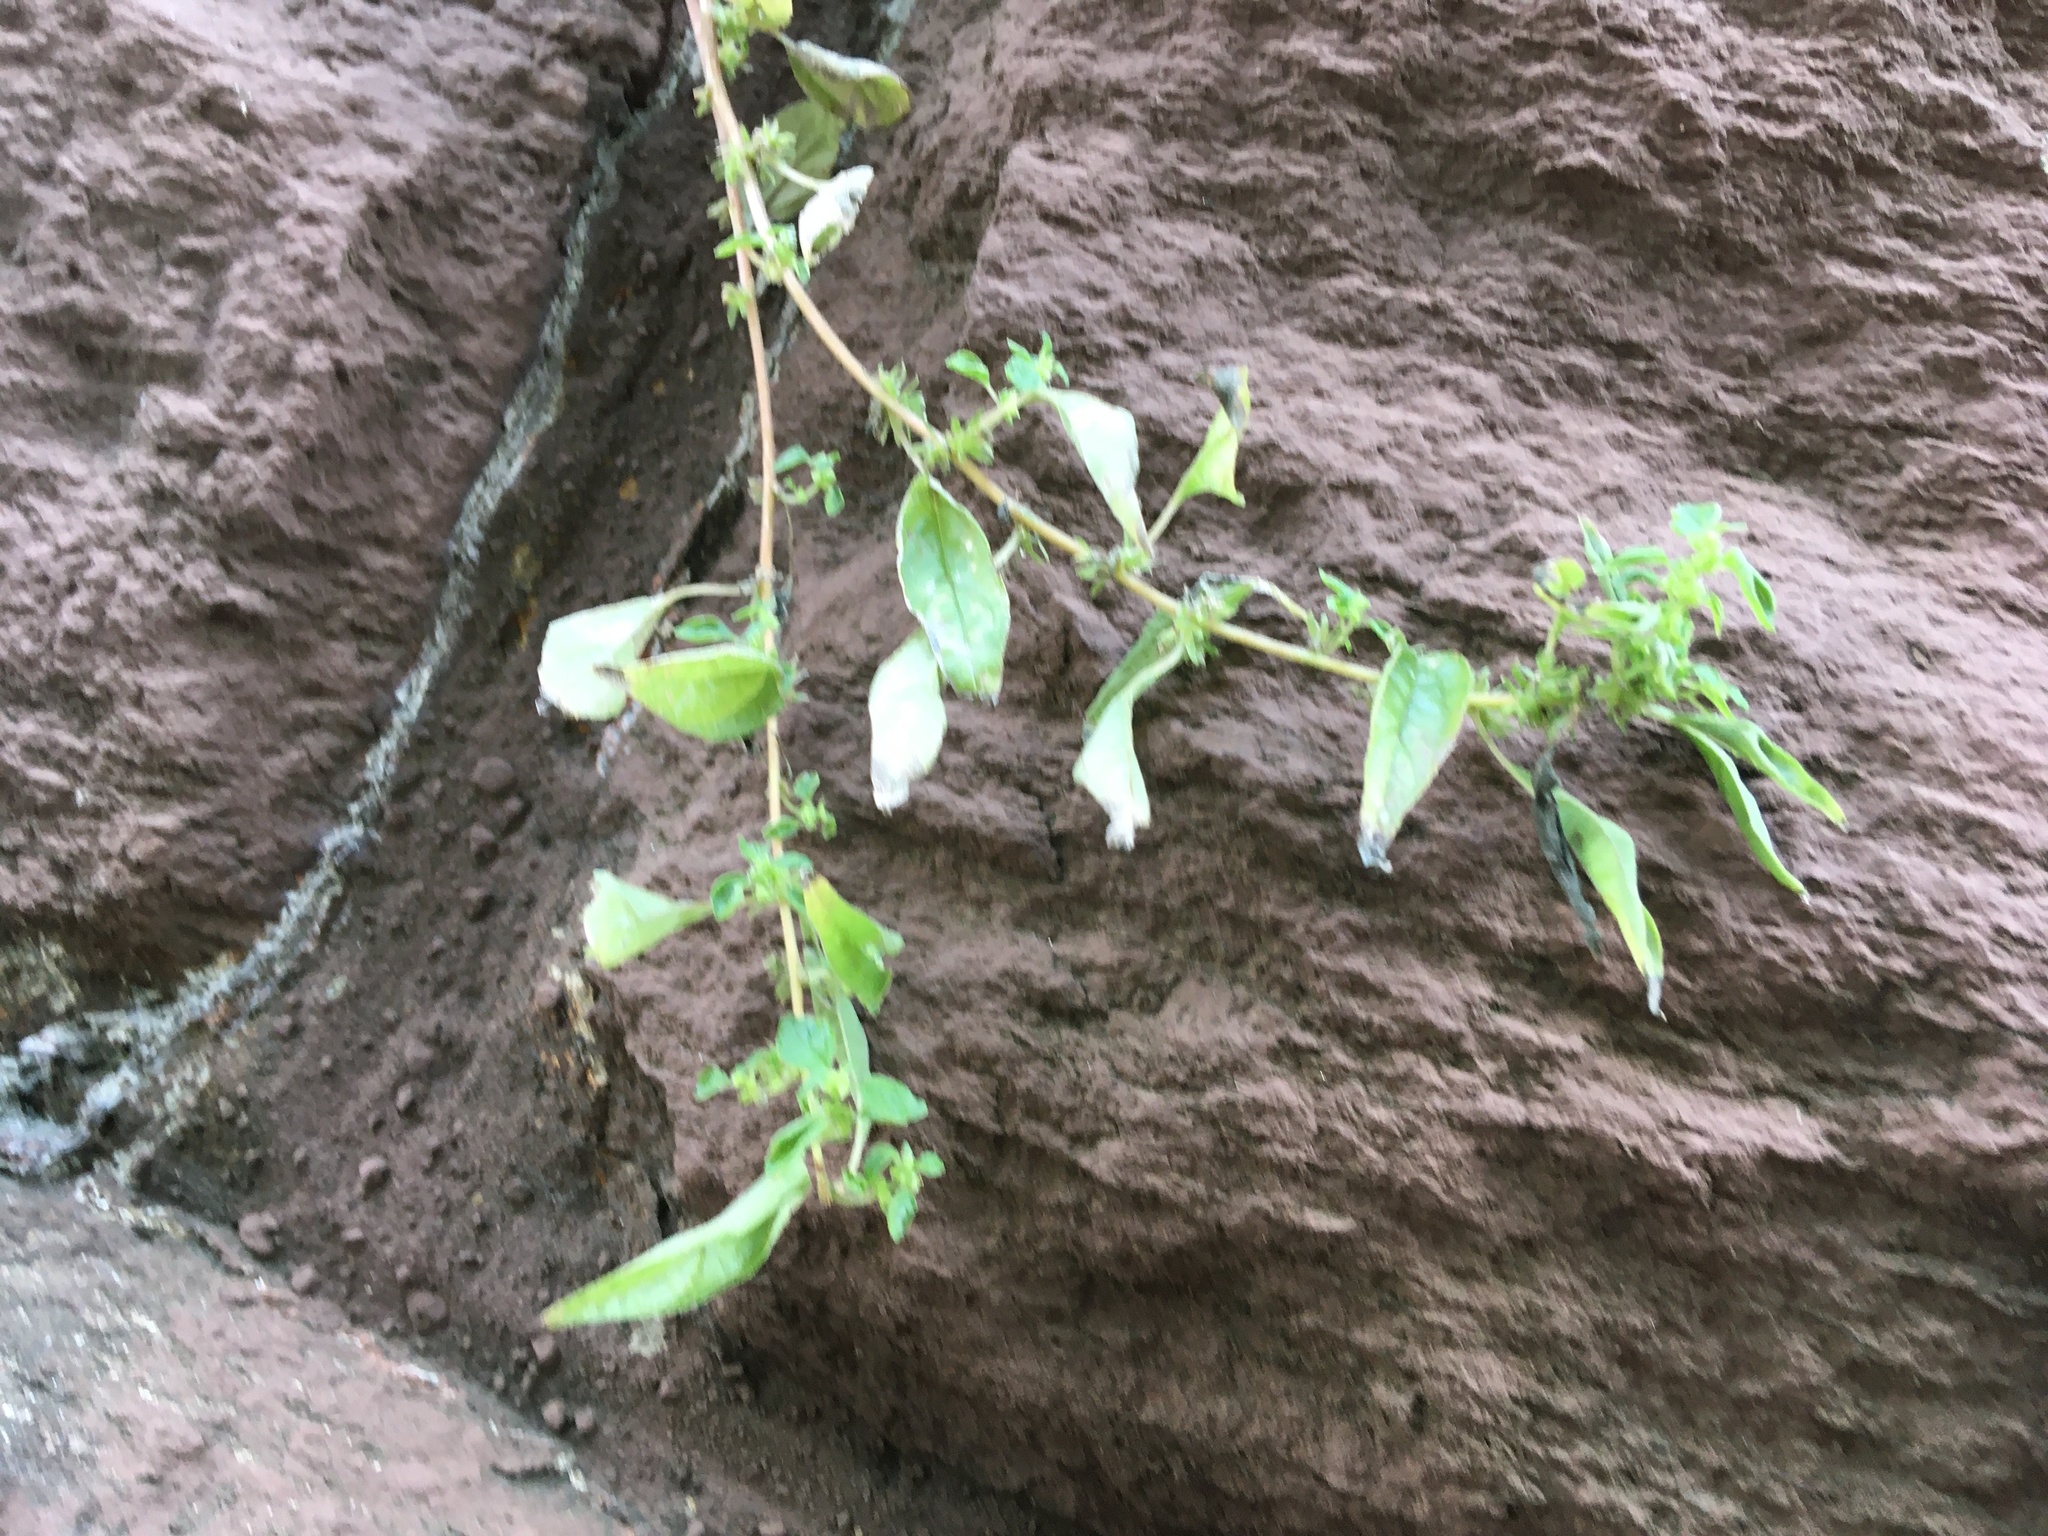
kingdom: Plantae
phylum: Tracheophyta
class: Magnoliopsida
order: Rosales
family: Urticaceae
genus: Parietaria
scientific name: Parietaria pensylvanica
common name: Pennsylvania pellitory
